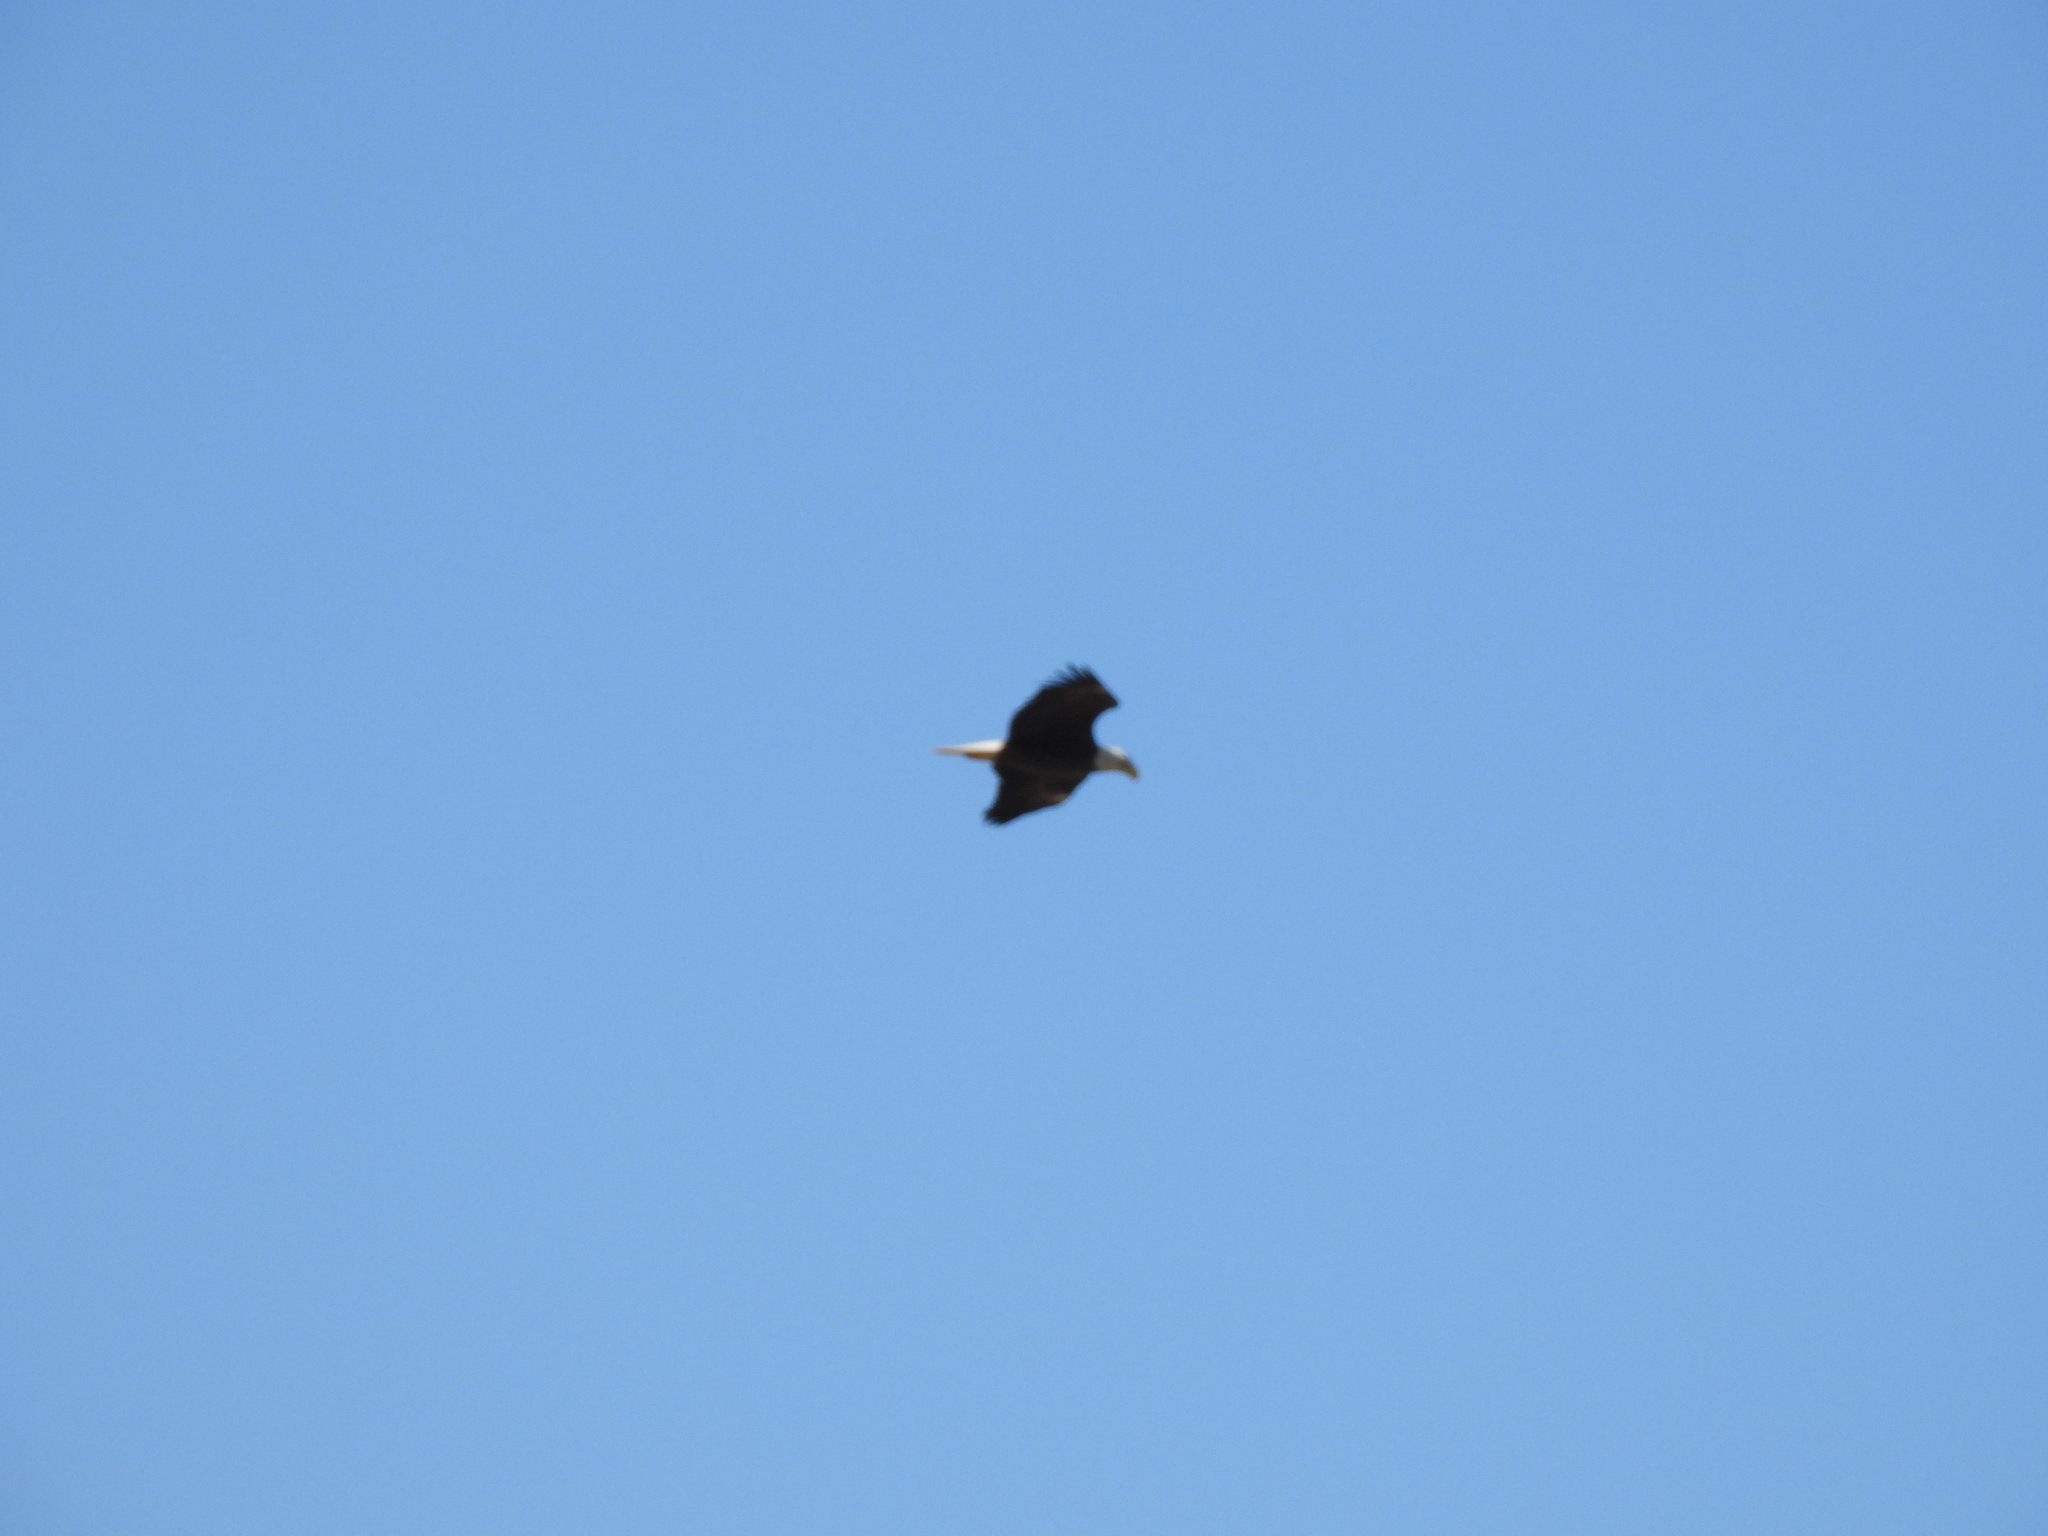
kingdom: Animalia
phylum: Chordata
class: Aves
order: Accipitriformes
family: Accipitridae
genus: Haliaeetus
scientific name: Haliaeetus leucocephalus
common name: Bald eagle
